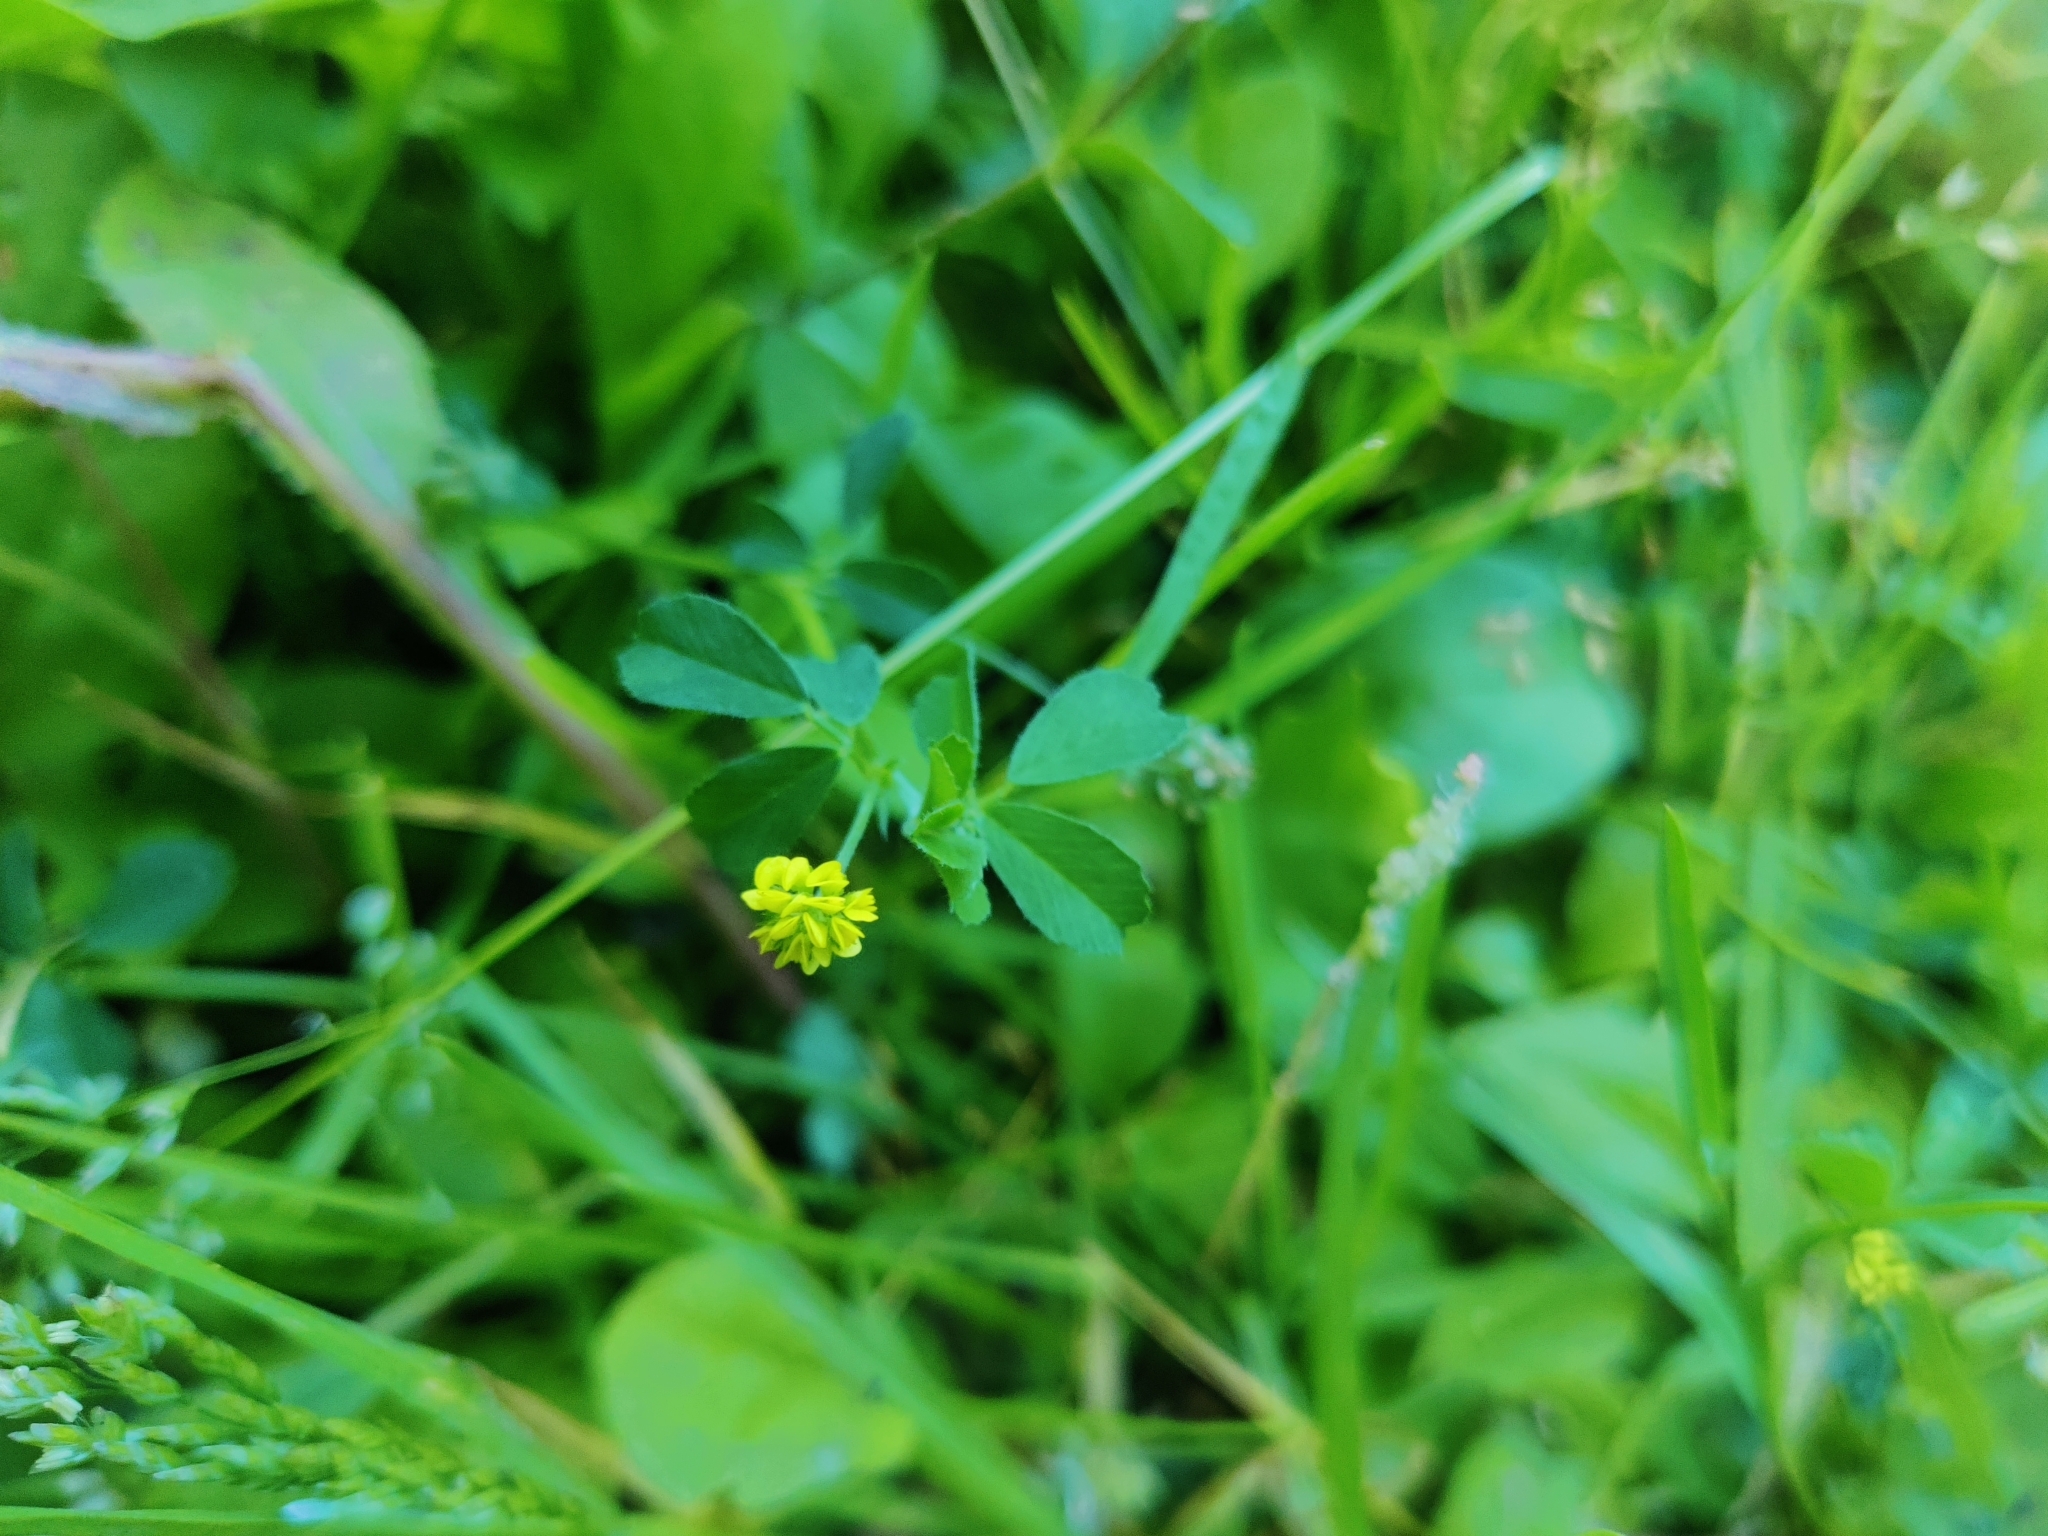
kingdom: Plantae
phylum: Tracheophyta
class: Magnoliopsida
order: Fabales
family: Fabaceae
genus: Medicago
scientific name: Medicago lupulina
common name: Black medick
